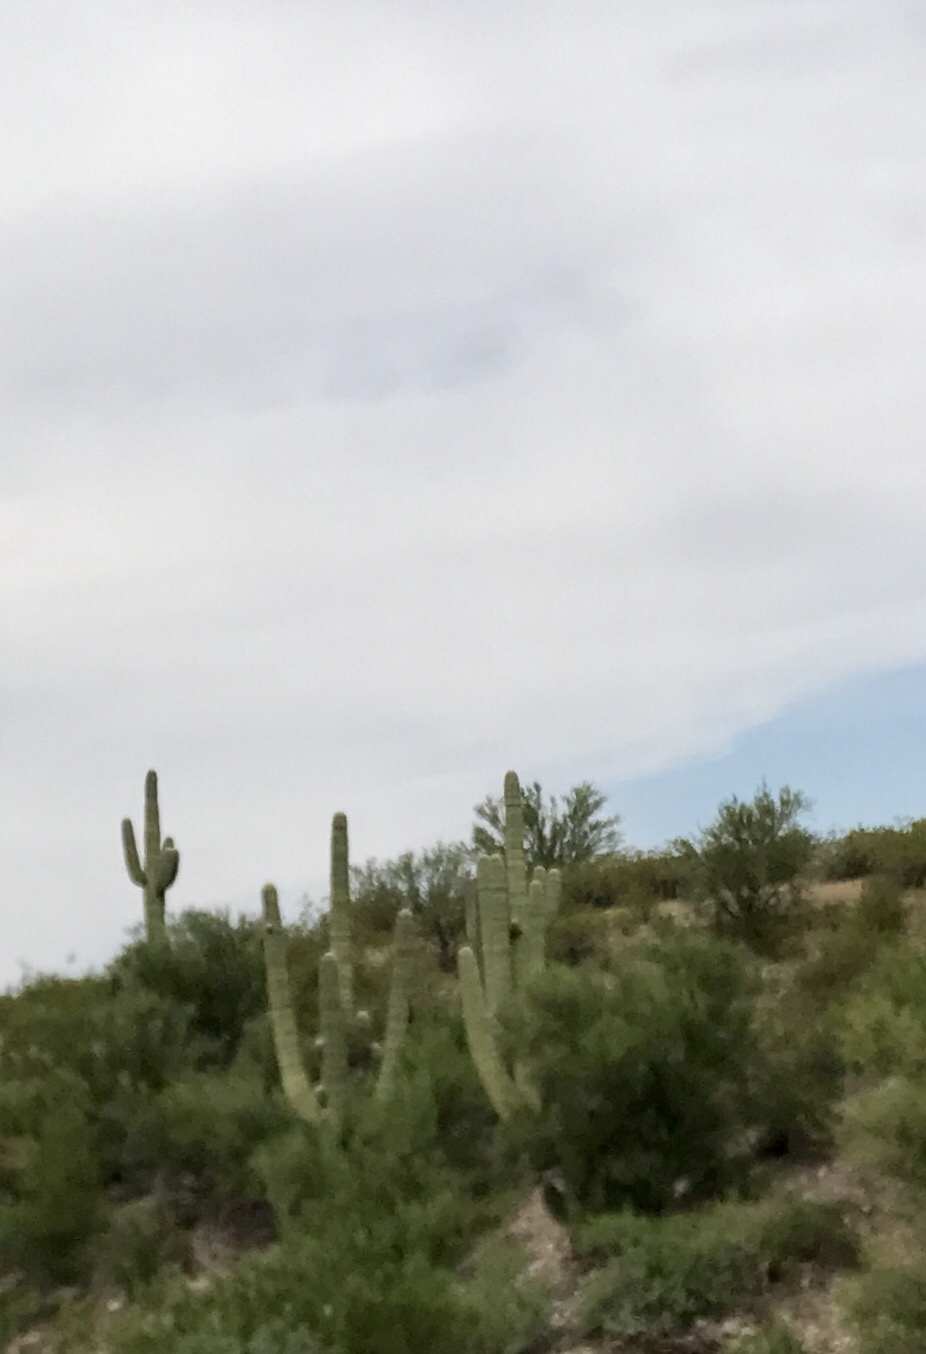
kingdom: Plantae
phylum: Tracheophyta
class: Magnoliopsida
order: Caryophyllales
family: Cactaceae
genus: Carnegiea
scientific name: Carnegiea gigantea
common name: Saguaro
